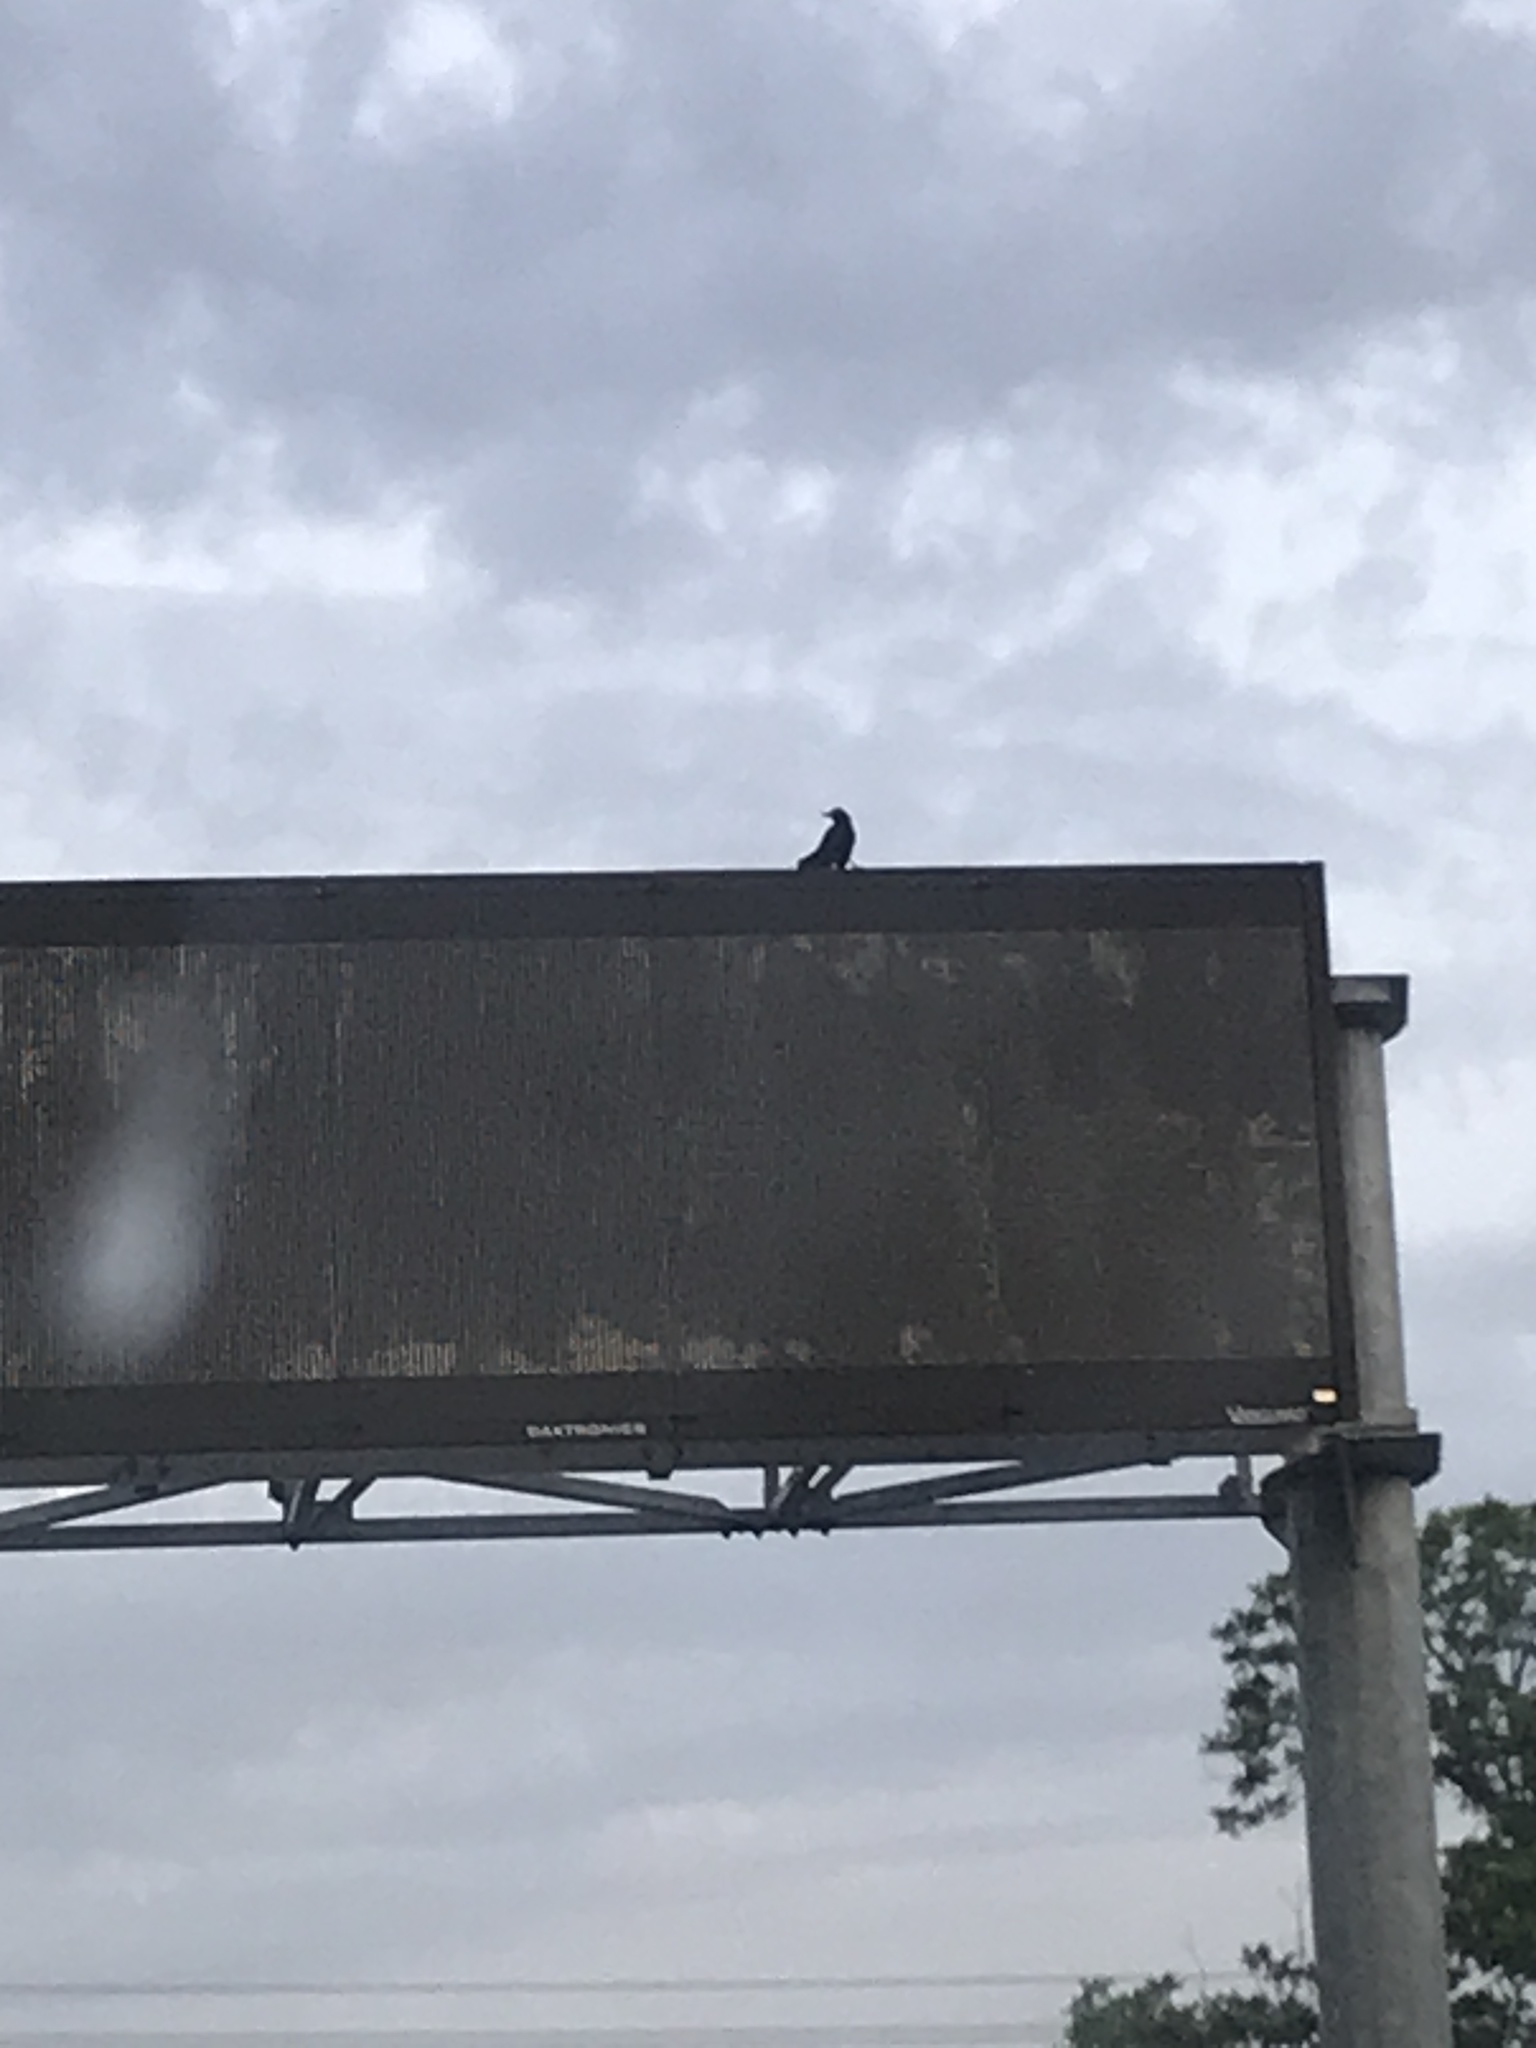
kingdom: Animalia
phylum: Chordata
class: Aves
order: Columbiformes
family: Columbidae
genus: Columba
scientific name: Columba livia
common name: Rock pigeon
